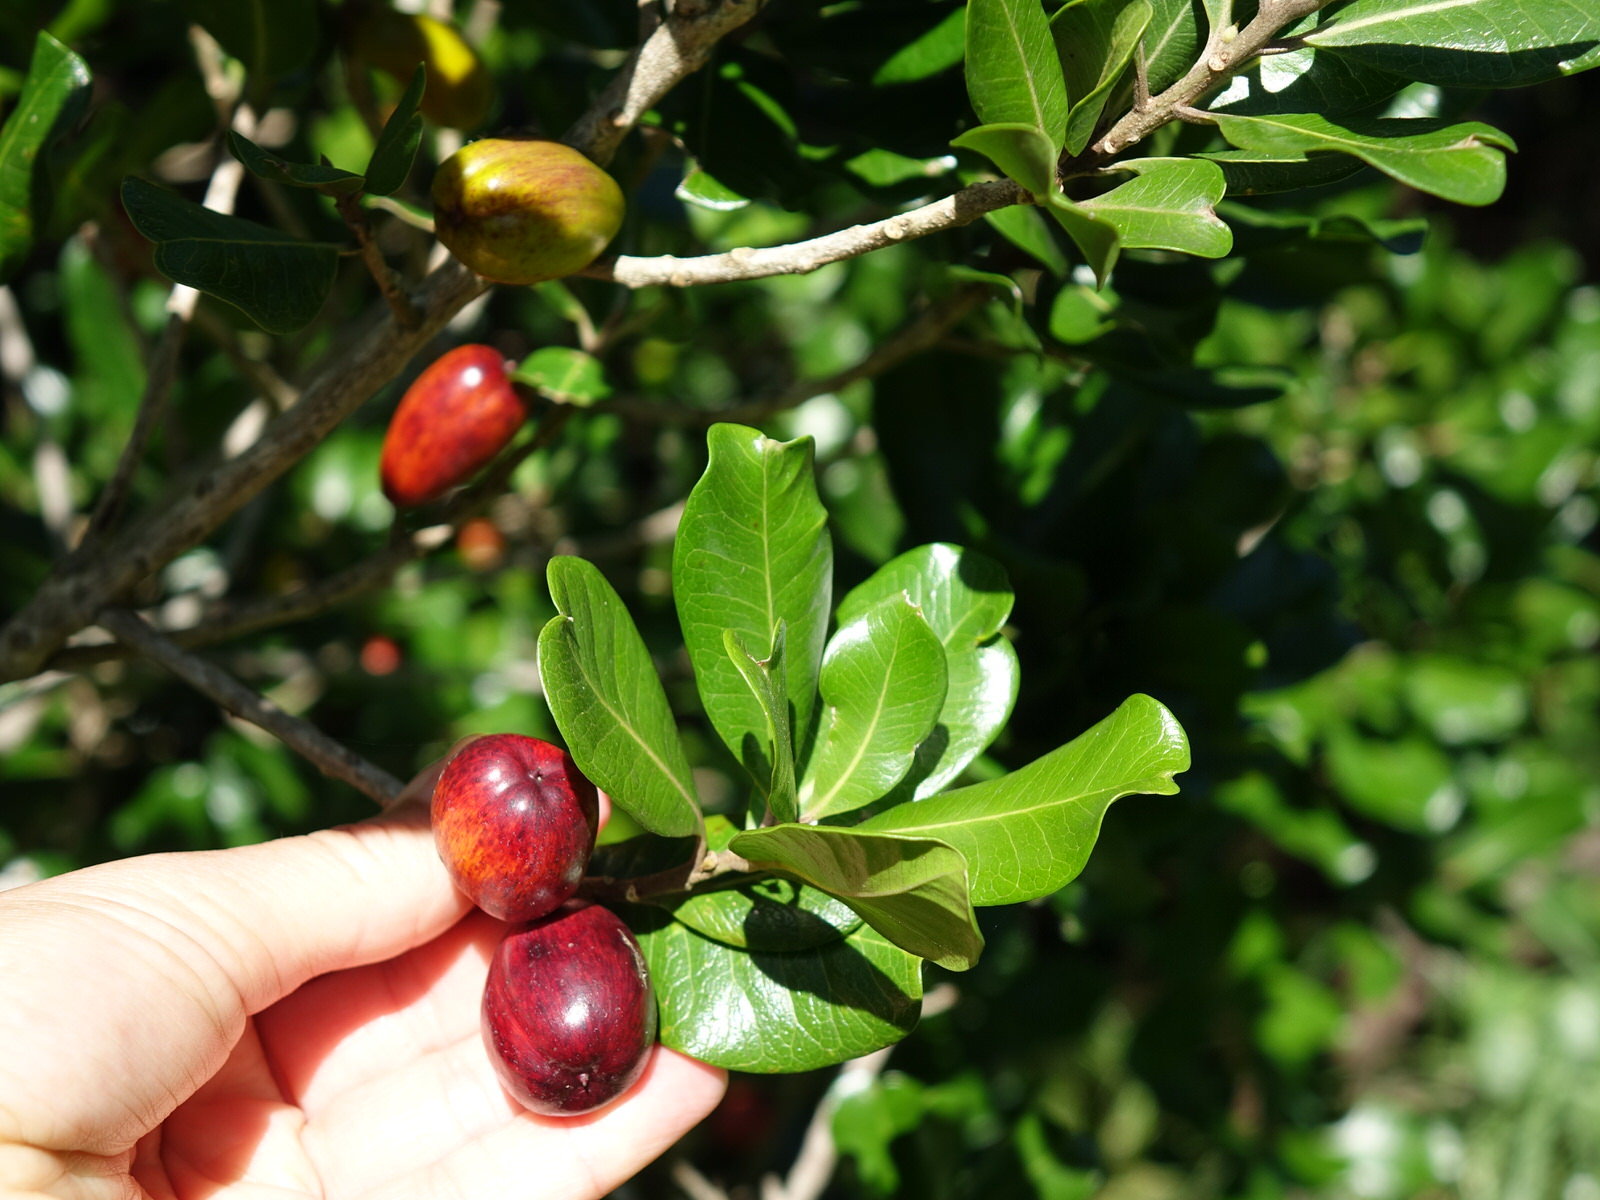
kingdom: Plantae
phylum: Tracheophyta
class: Magnoliopsida
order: Ericales
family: Sapotaceae
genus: Planchonella
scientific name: Planchonella costata
